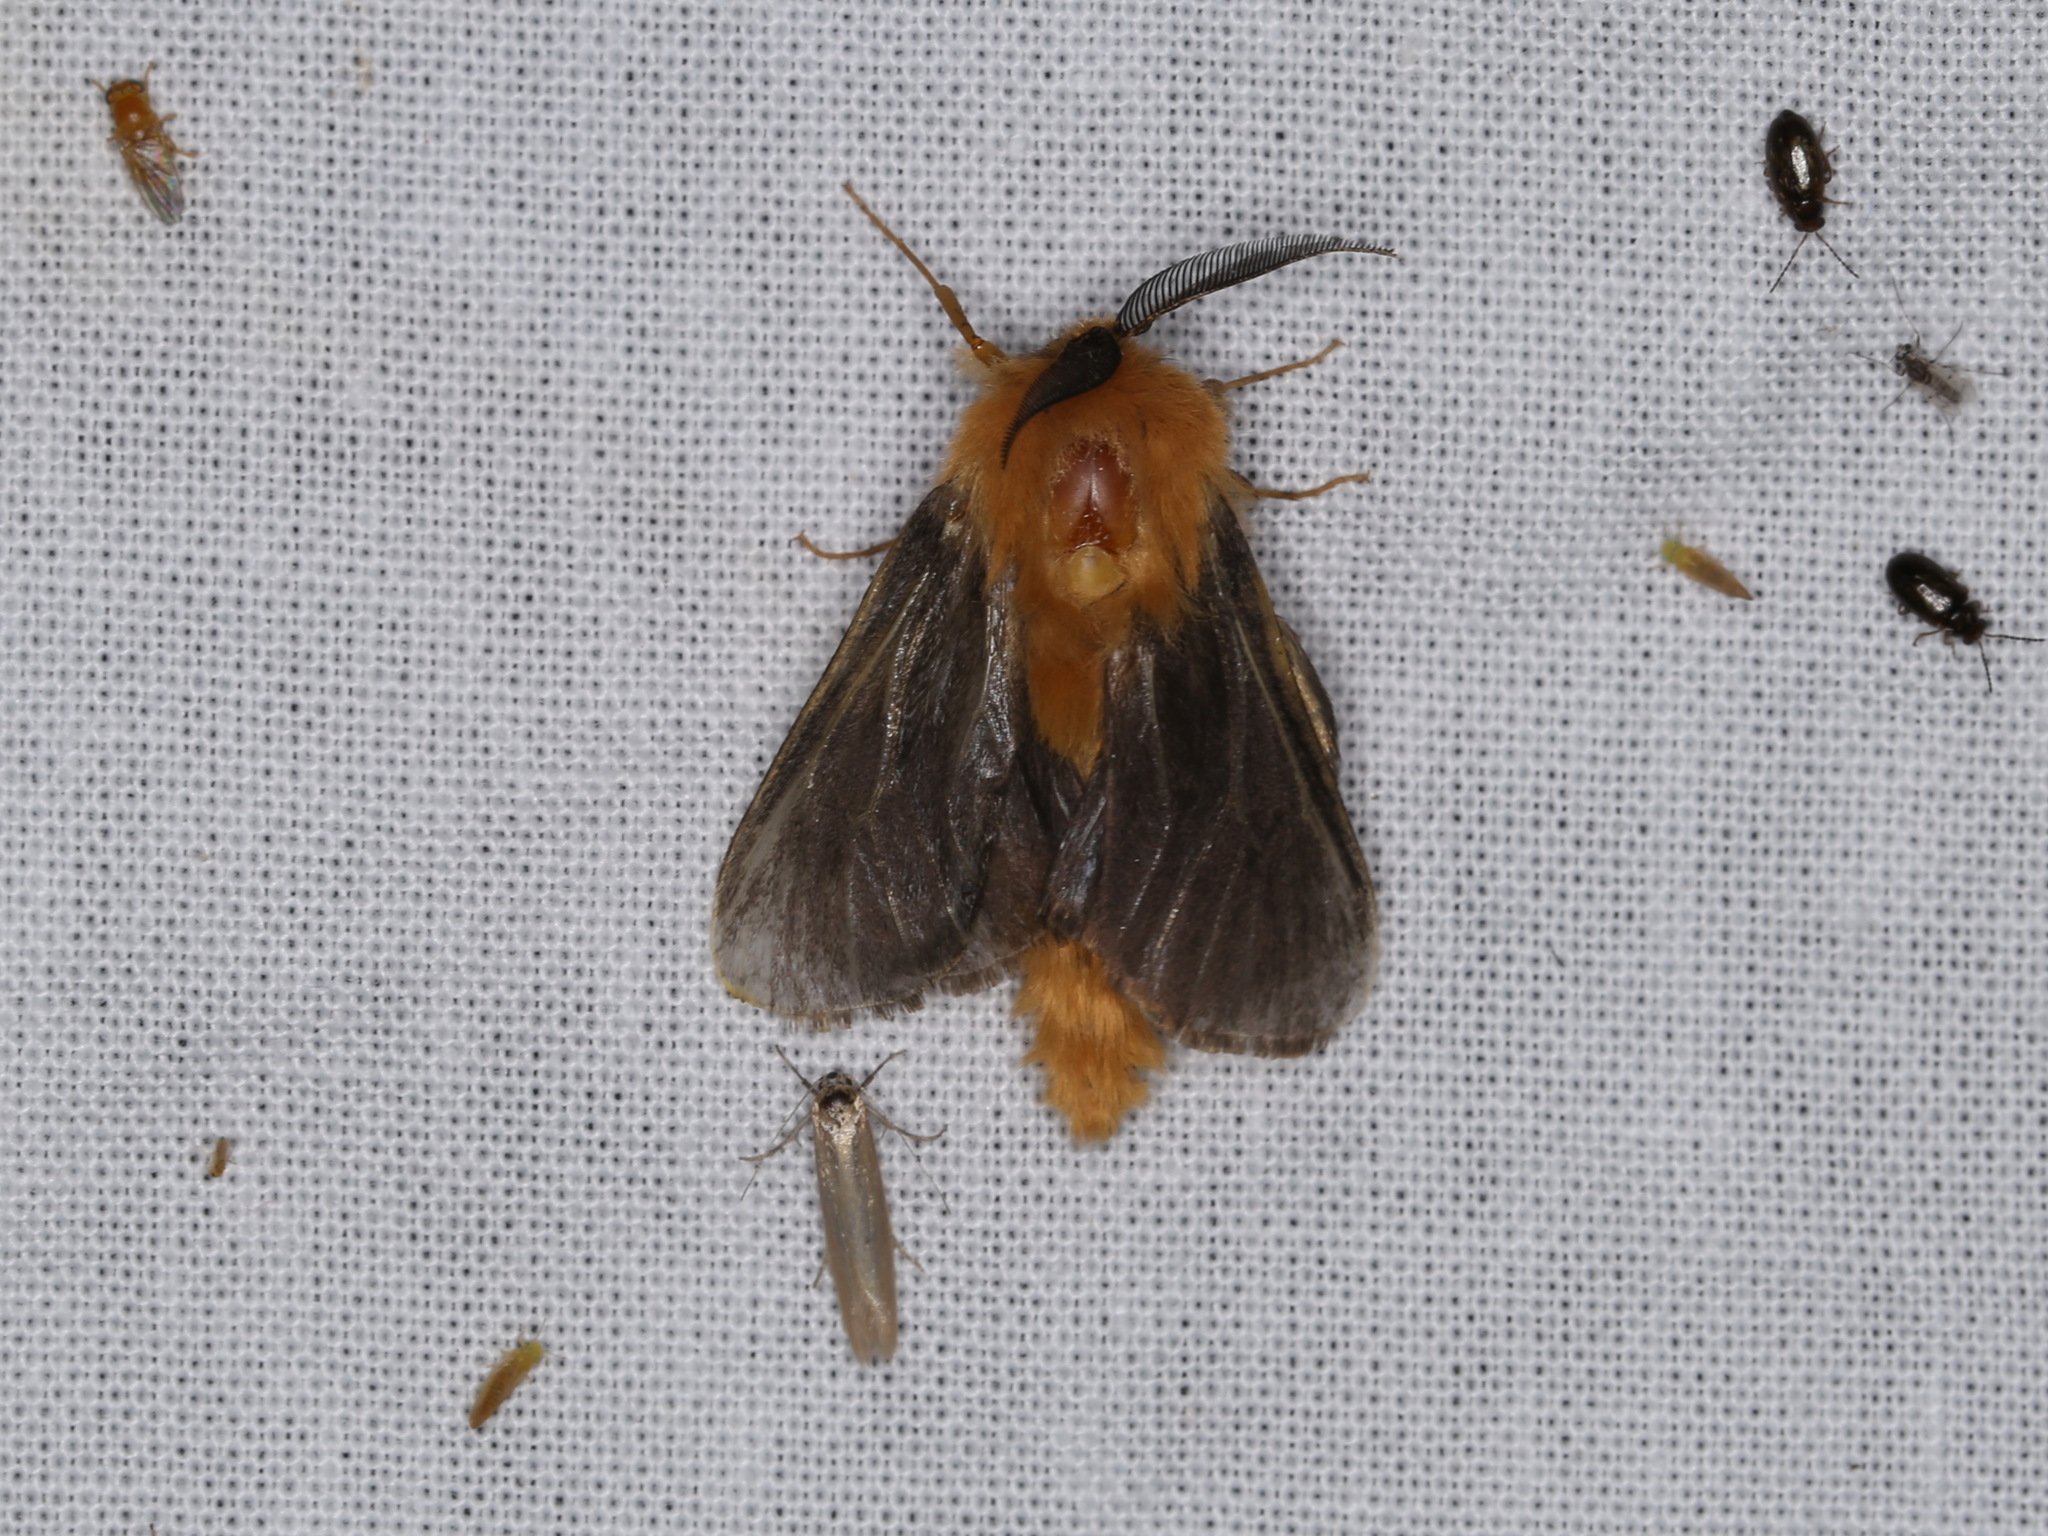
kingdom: Animalia
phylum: Arthropoda
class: Insecta
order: Lepidoptera
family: Psychidae
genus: Lomera
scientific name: Lomera
